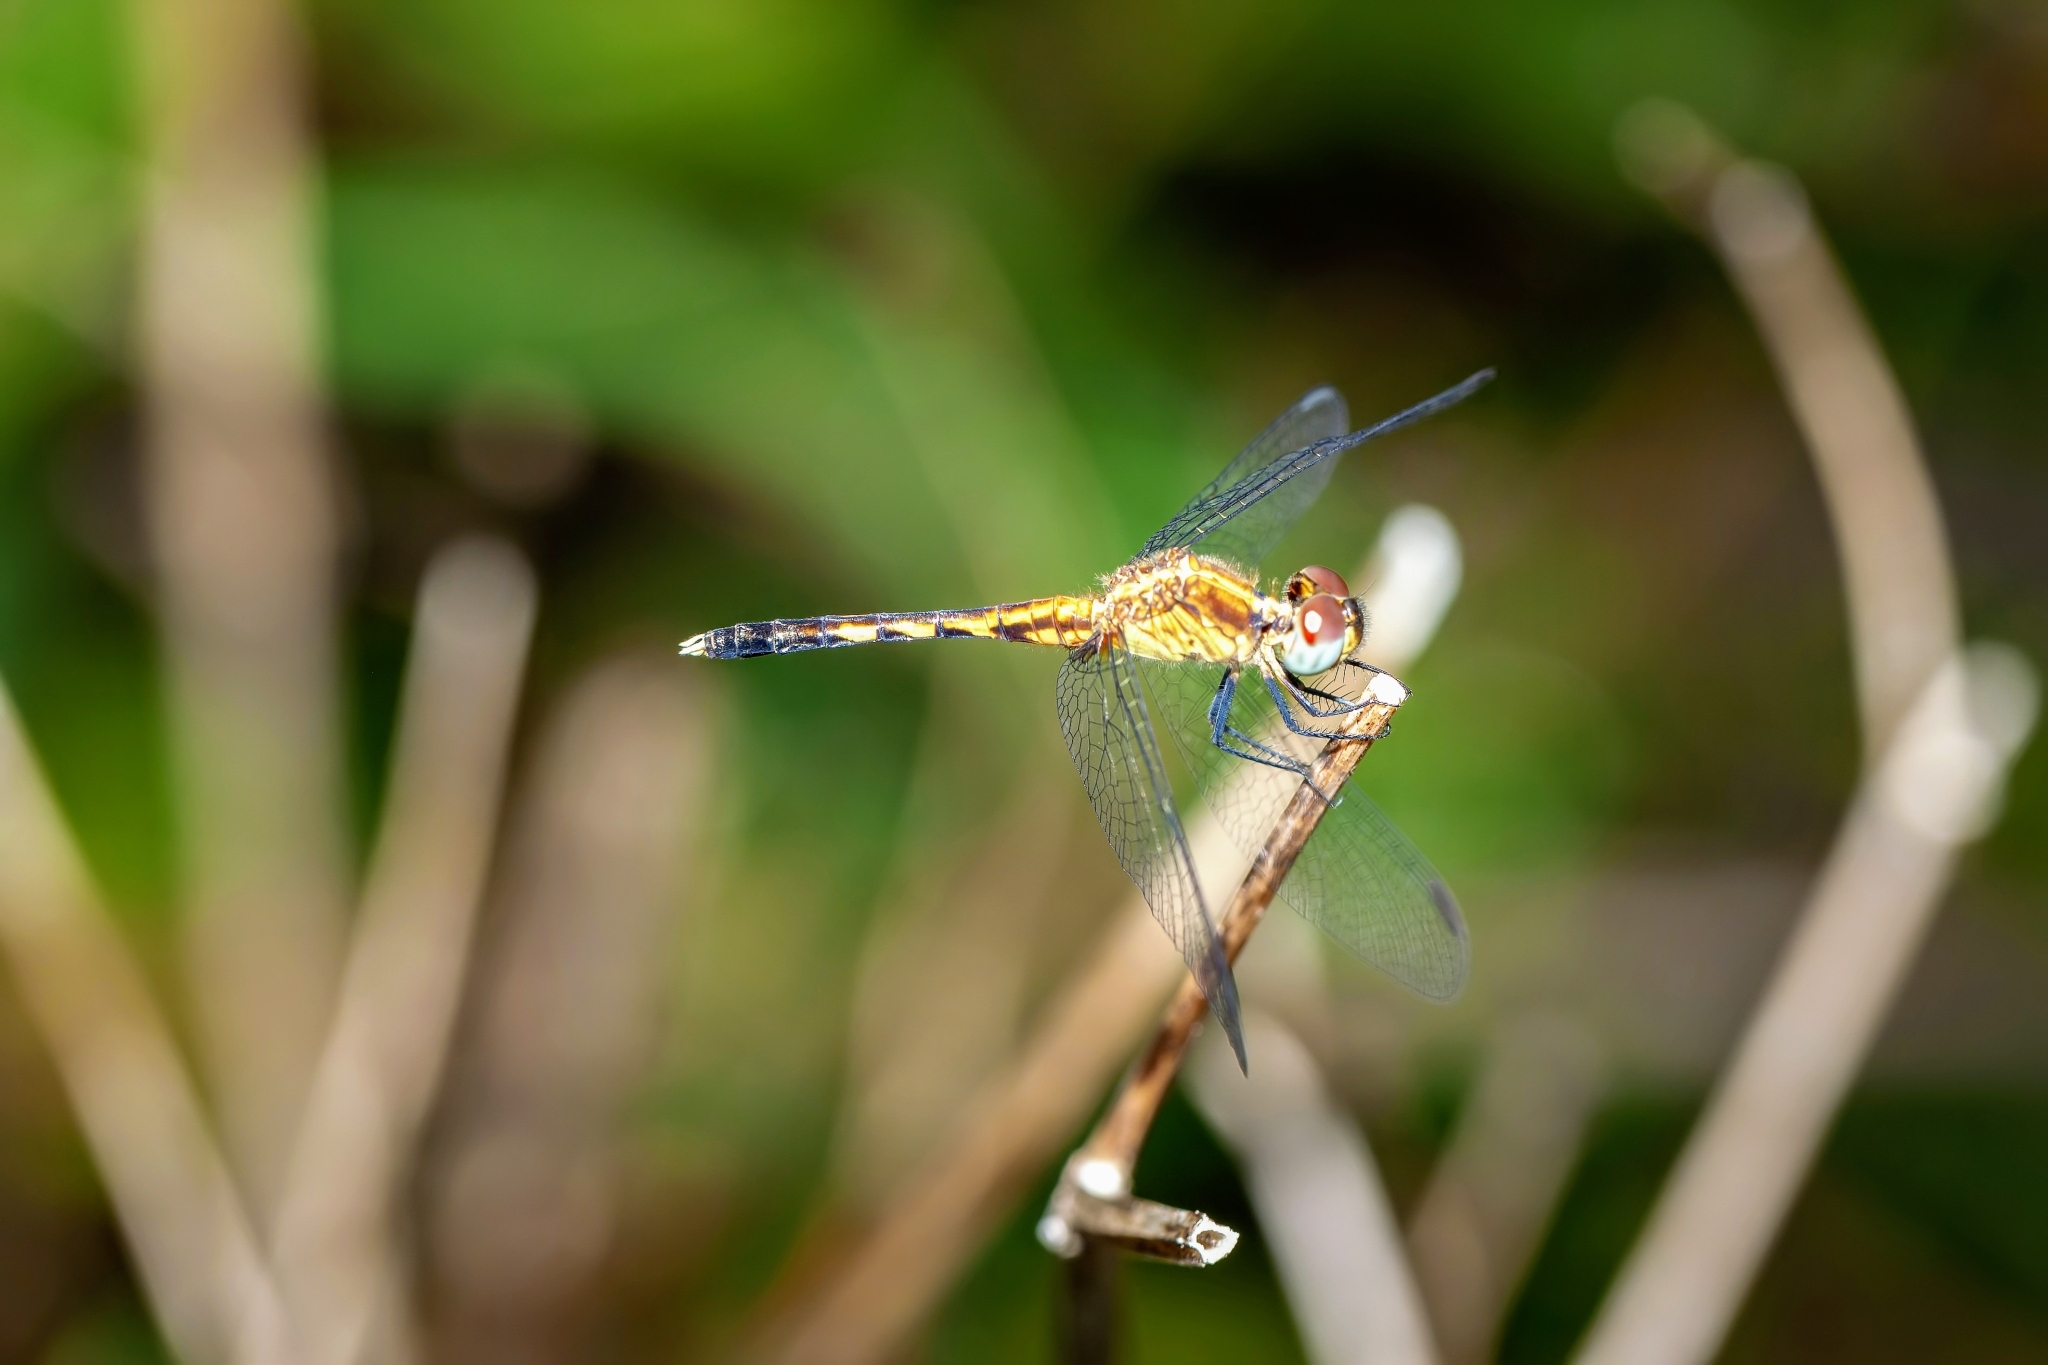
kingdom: Animalia
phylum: Arthropoda
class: Insecta
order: Odonata
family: Libellulidae
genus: Erythrodiplax
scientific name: Erythrodiplax minuscula
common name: Little blue dragonlet
